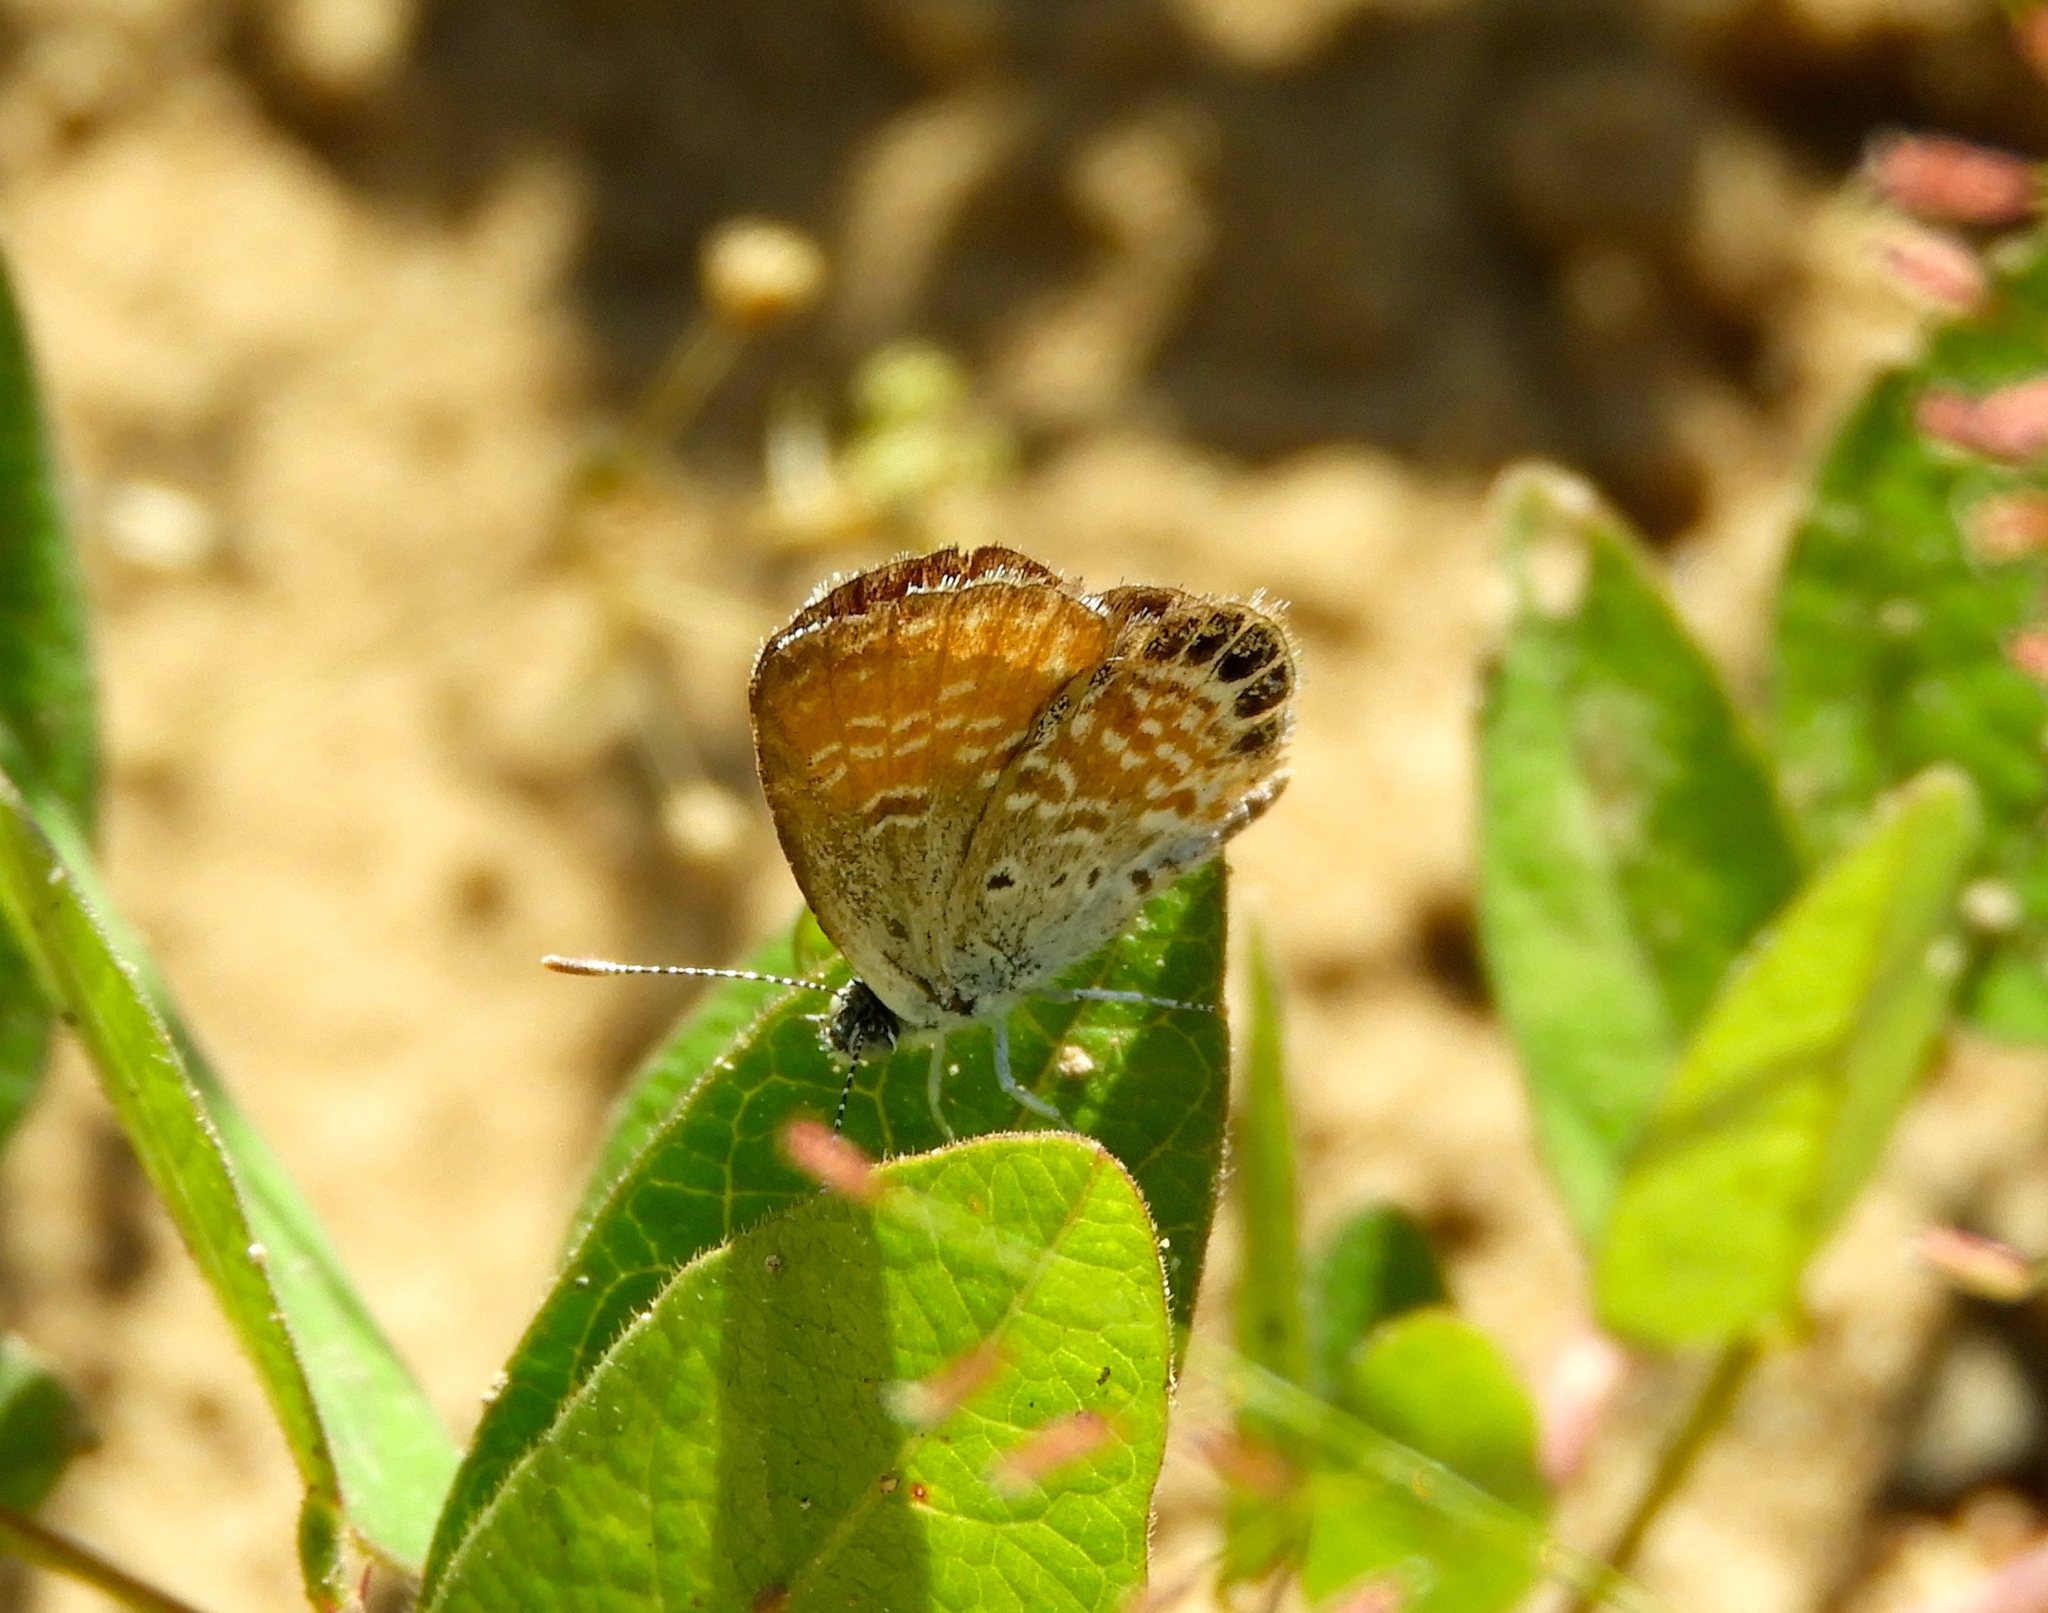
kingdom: Animalia
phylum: Arthropoda
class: Insecta
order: Lepidoptera
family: Lycaenidae
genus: Brephidium
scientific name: Brephidium exilis
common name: Pygmy blue
